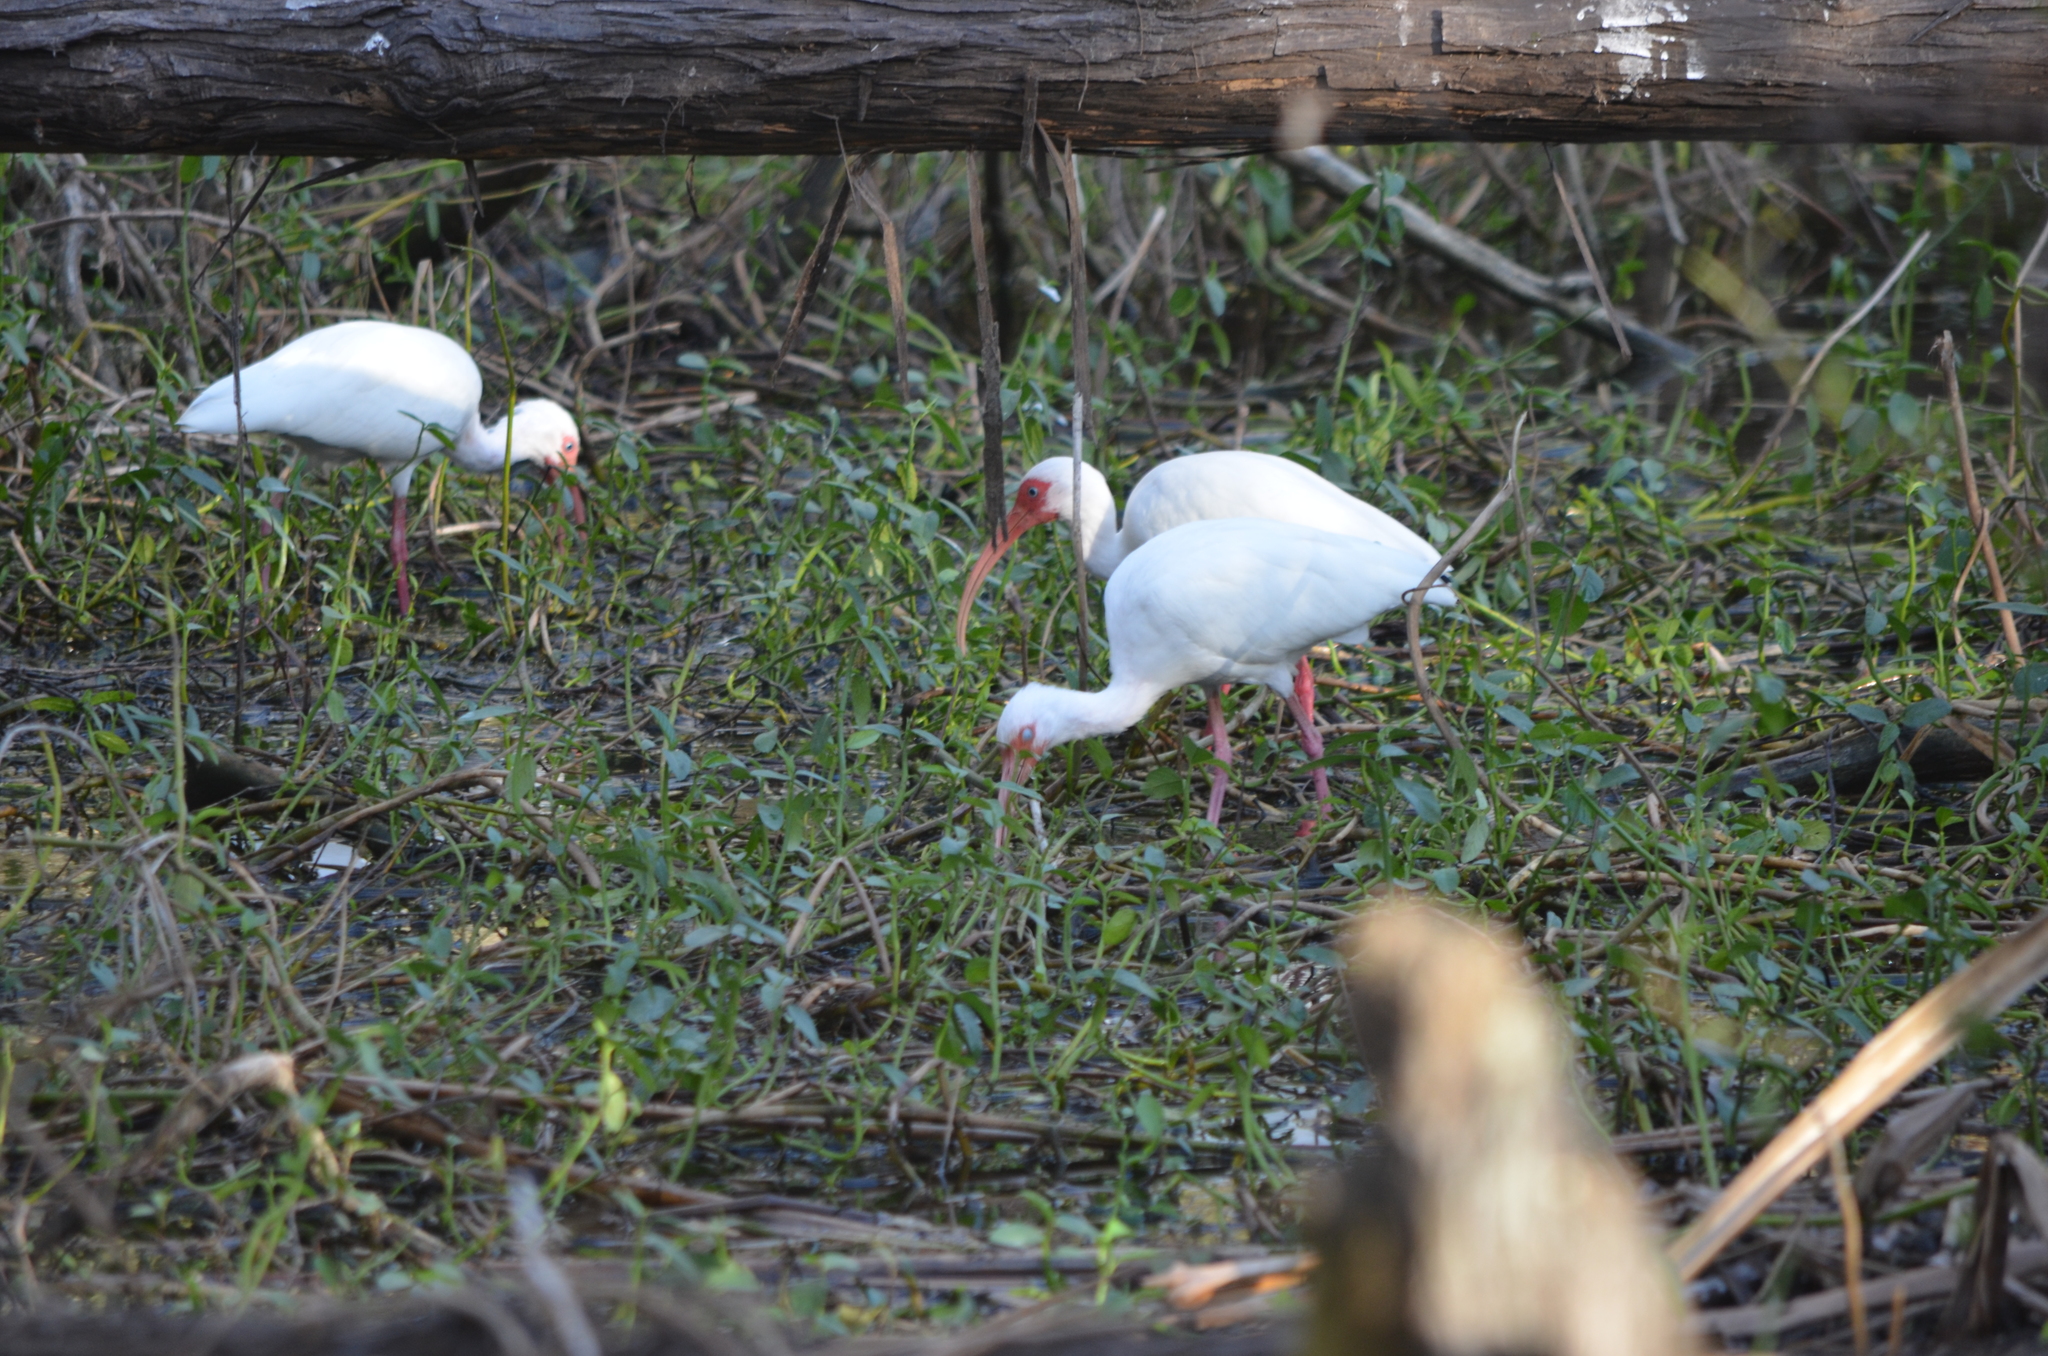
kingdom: Animalia
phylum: Chordata
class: Aves
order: Pelecaniformes
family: Threskiornithidae
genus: Eudocimus
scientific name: Eudocimus albus
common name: White ibis
